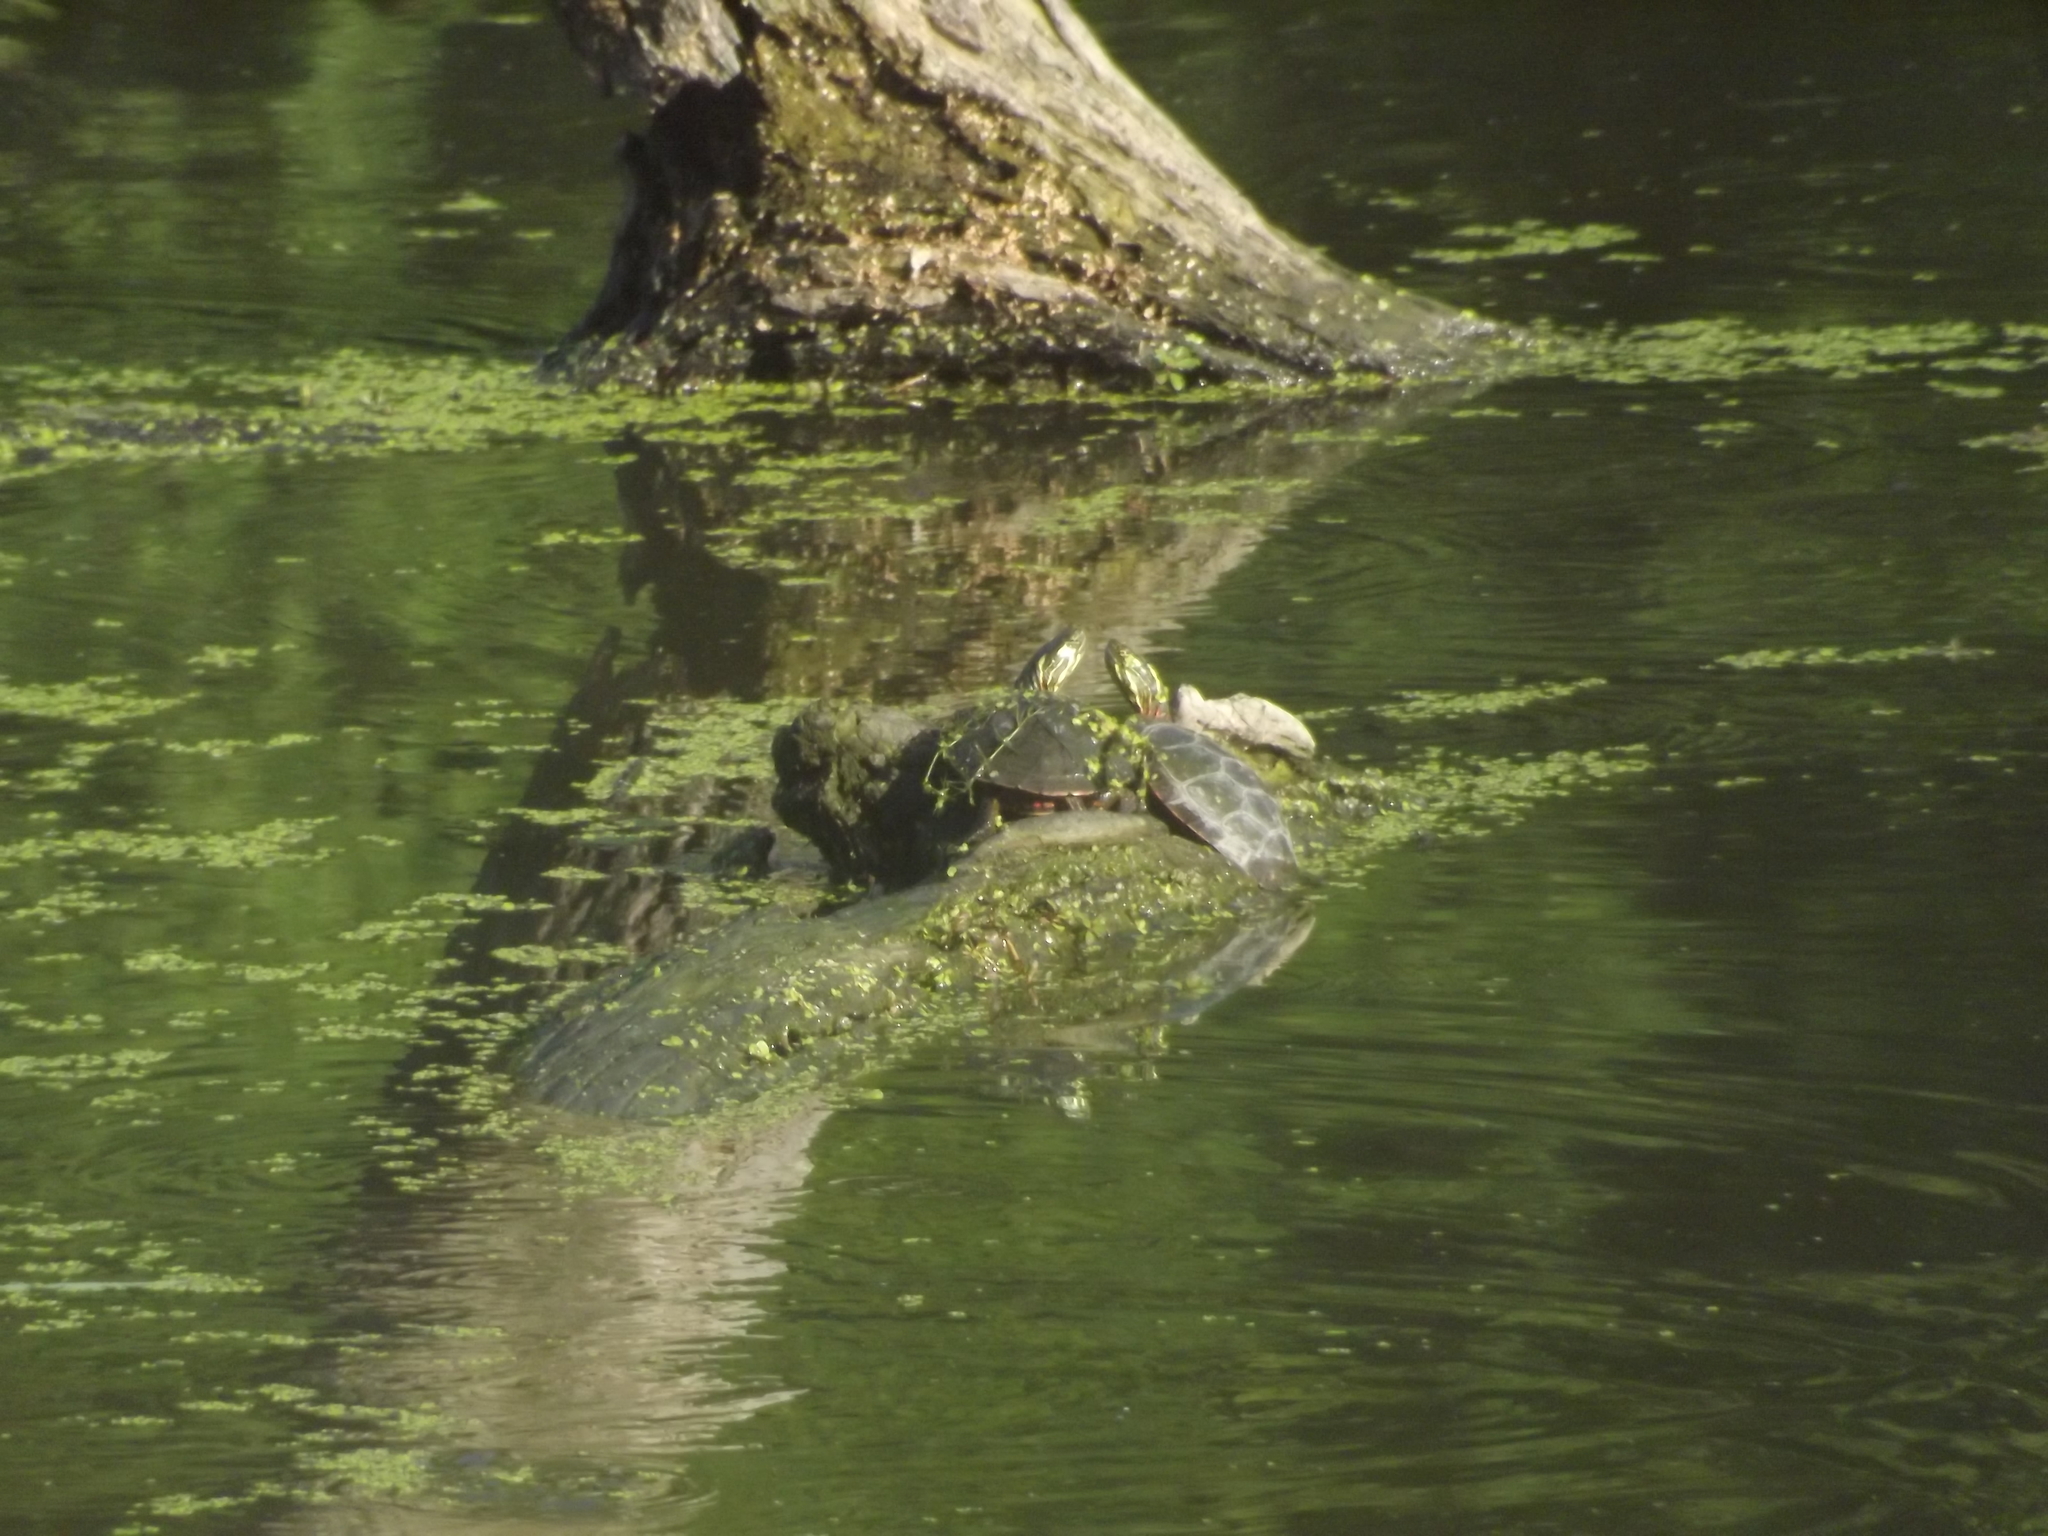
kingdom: Animalia
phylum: Chordata
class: Testudines
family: Emydidae
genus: Chrysemys
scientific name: Chrysemys picta
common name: Painted turtle
